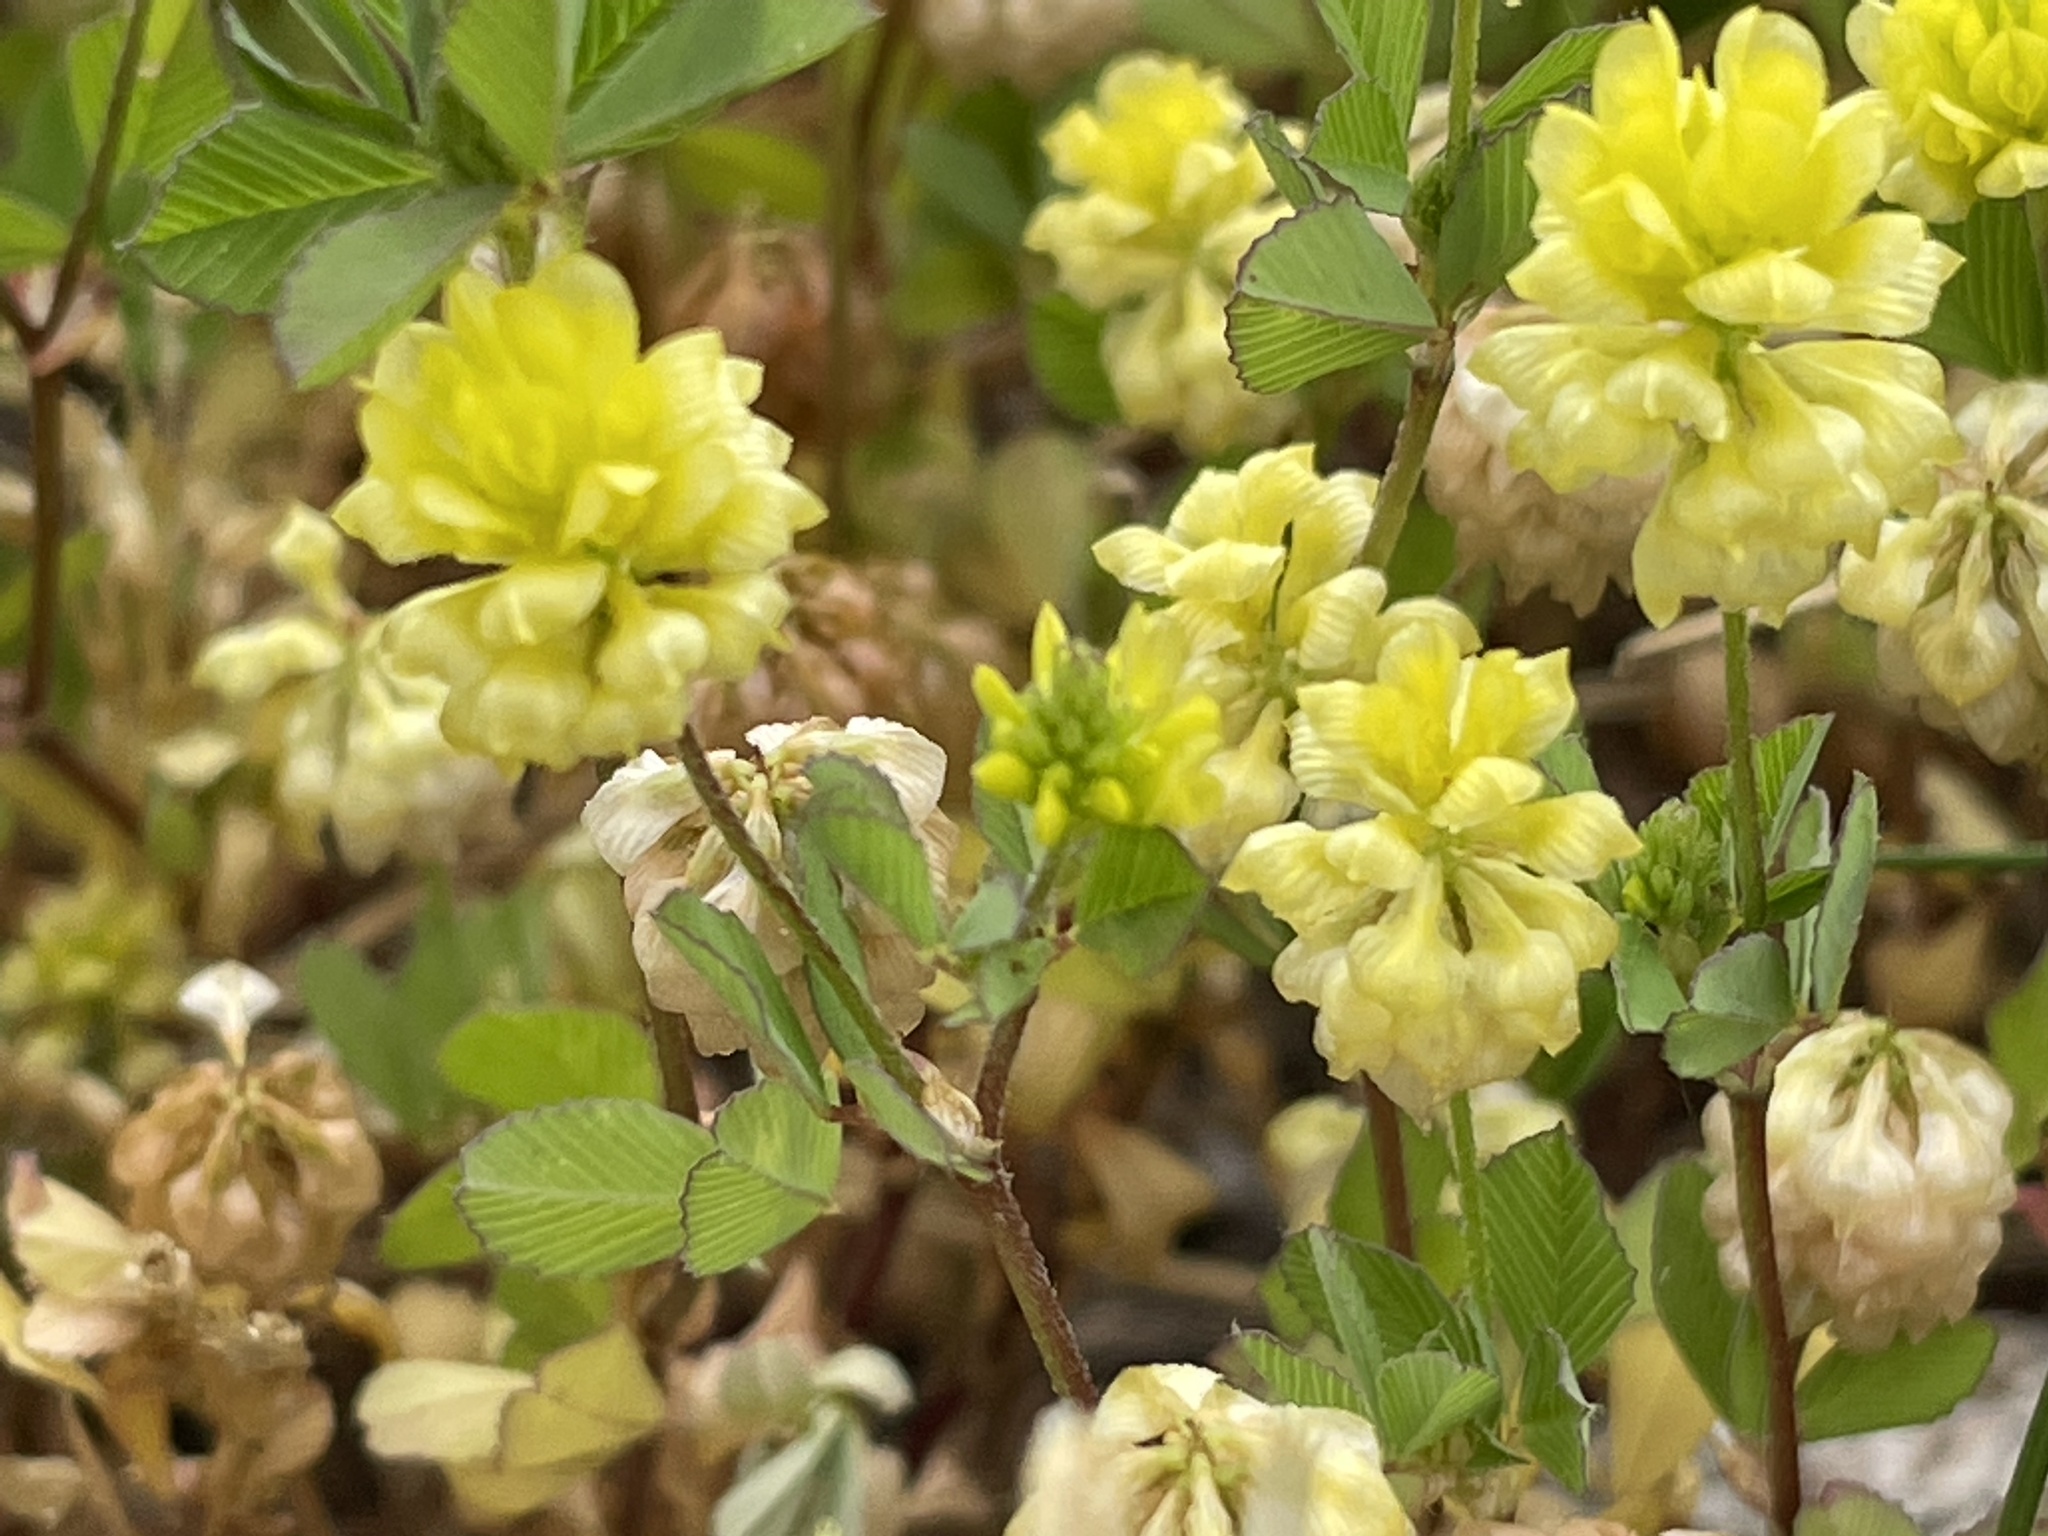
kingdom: Plantae
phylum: Tracheophyta
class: Magnoliopsida
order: Fabales
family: Fabaceae
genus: Trifolium
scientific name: Trifolium campestre
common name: Field clover
